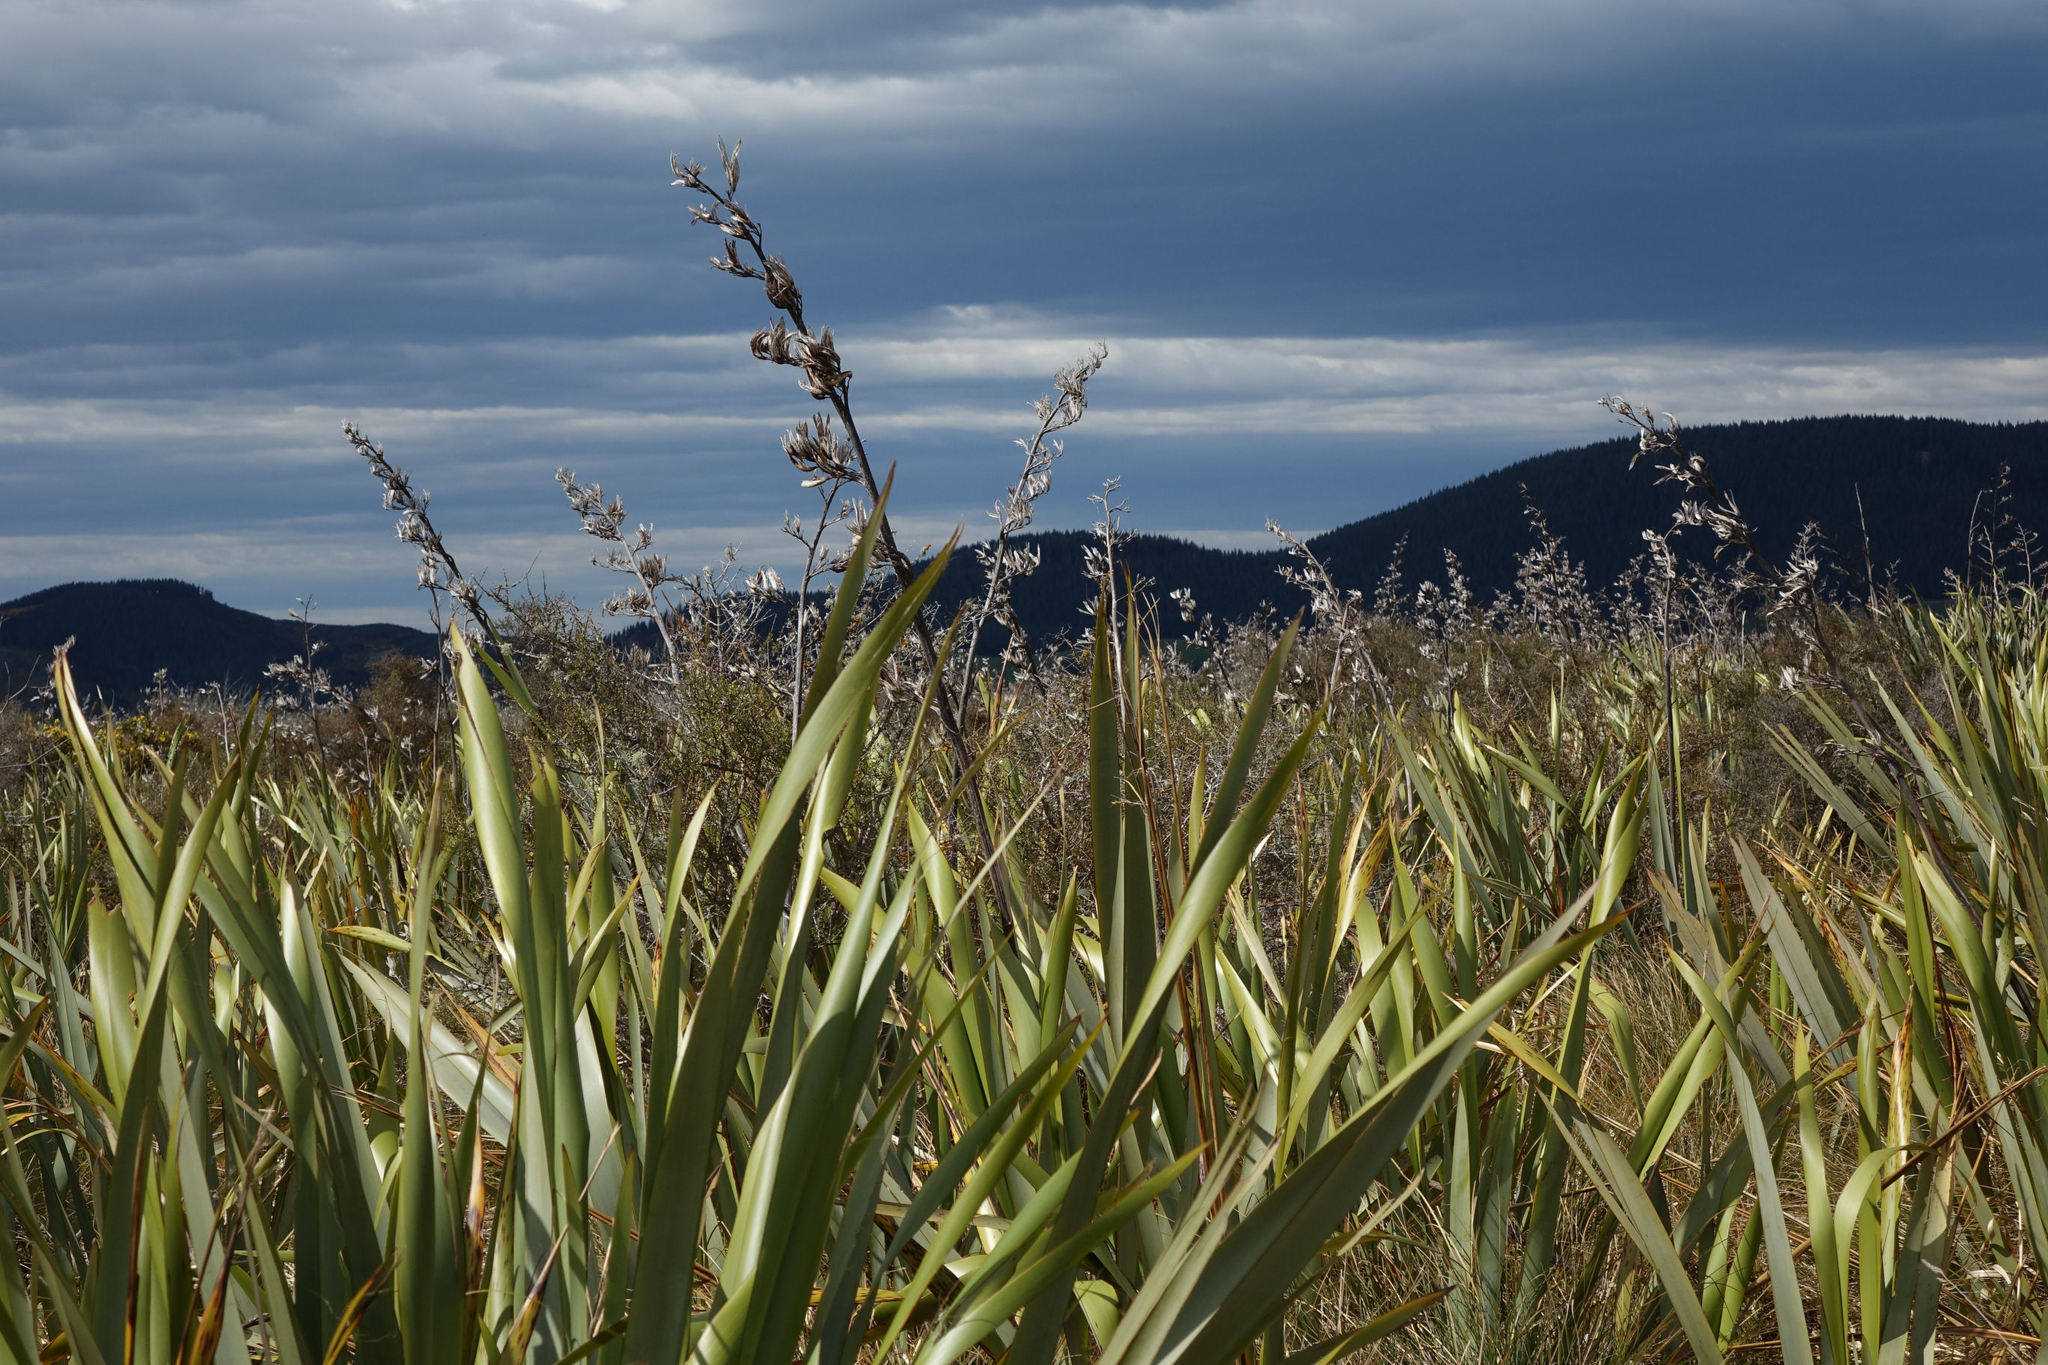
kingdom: Plantae
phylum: Tracheophyta
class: Liliopsida
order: Asparagales
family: Asphodelaceae
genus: Phormium
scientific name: Phormium tenax
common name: New zealand flax
